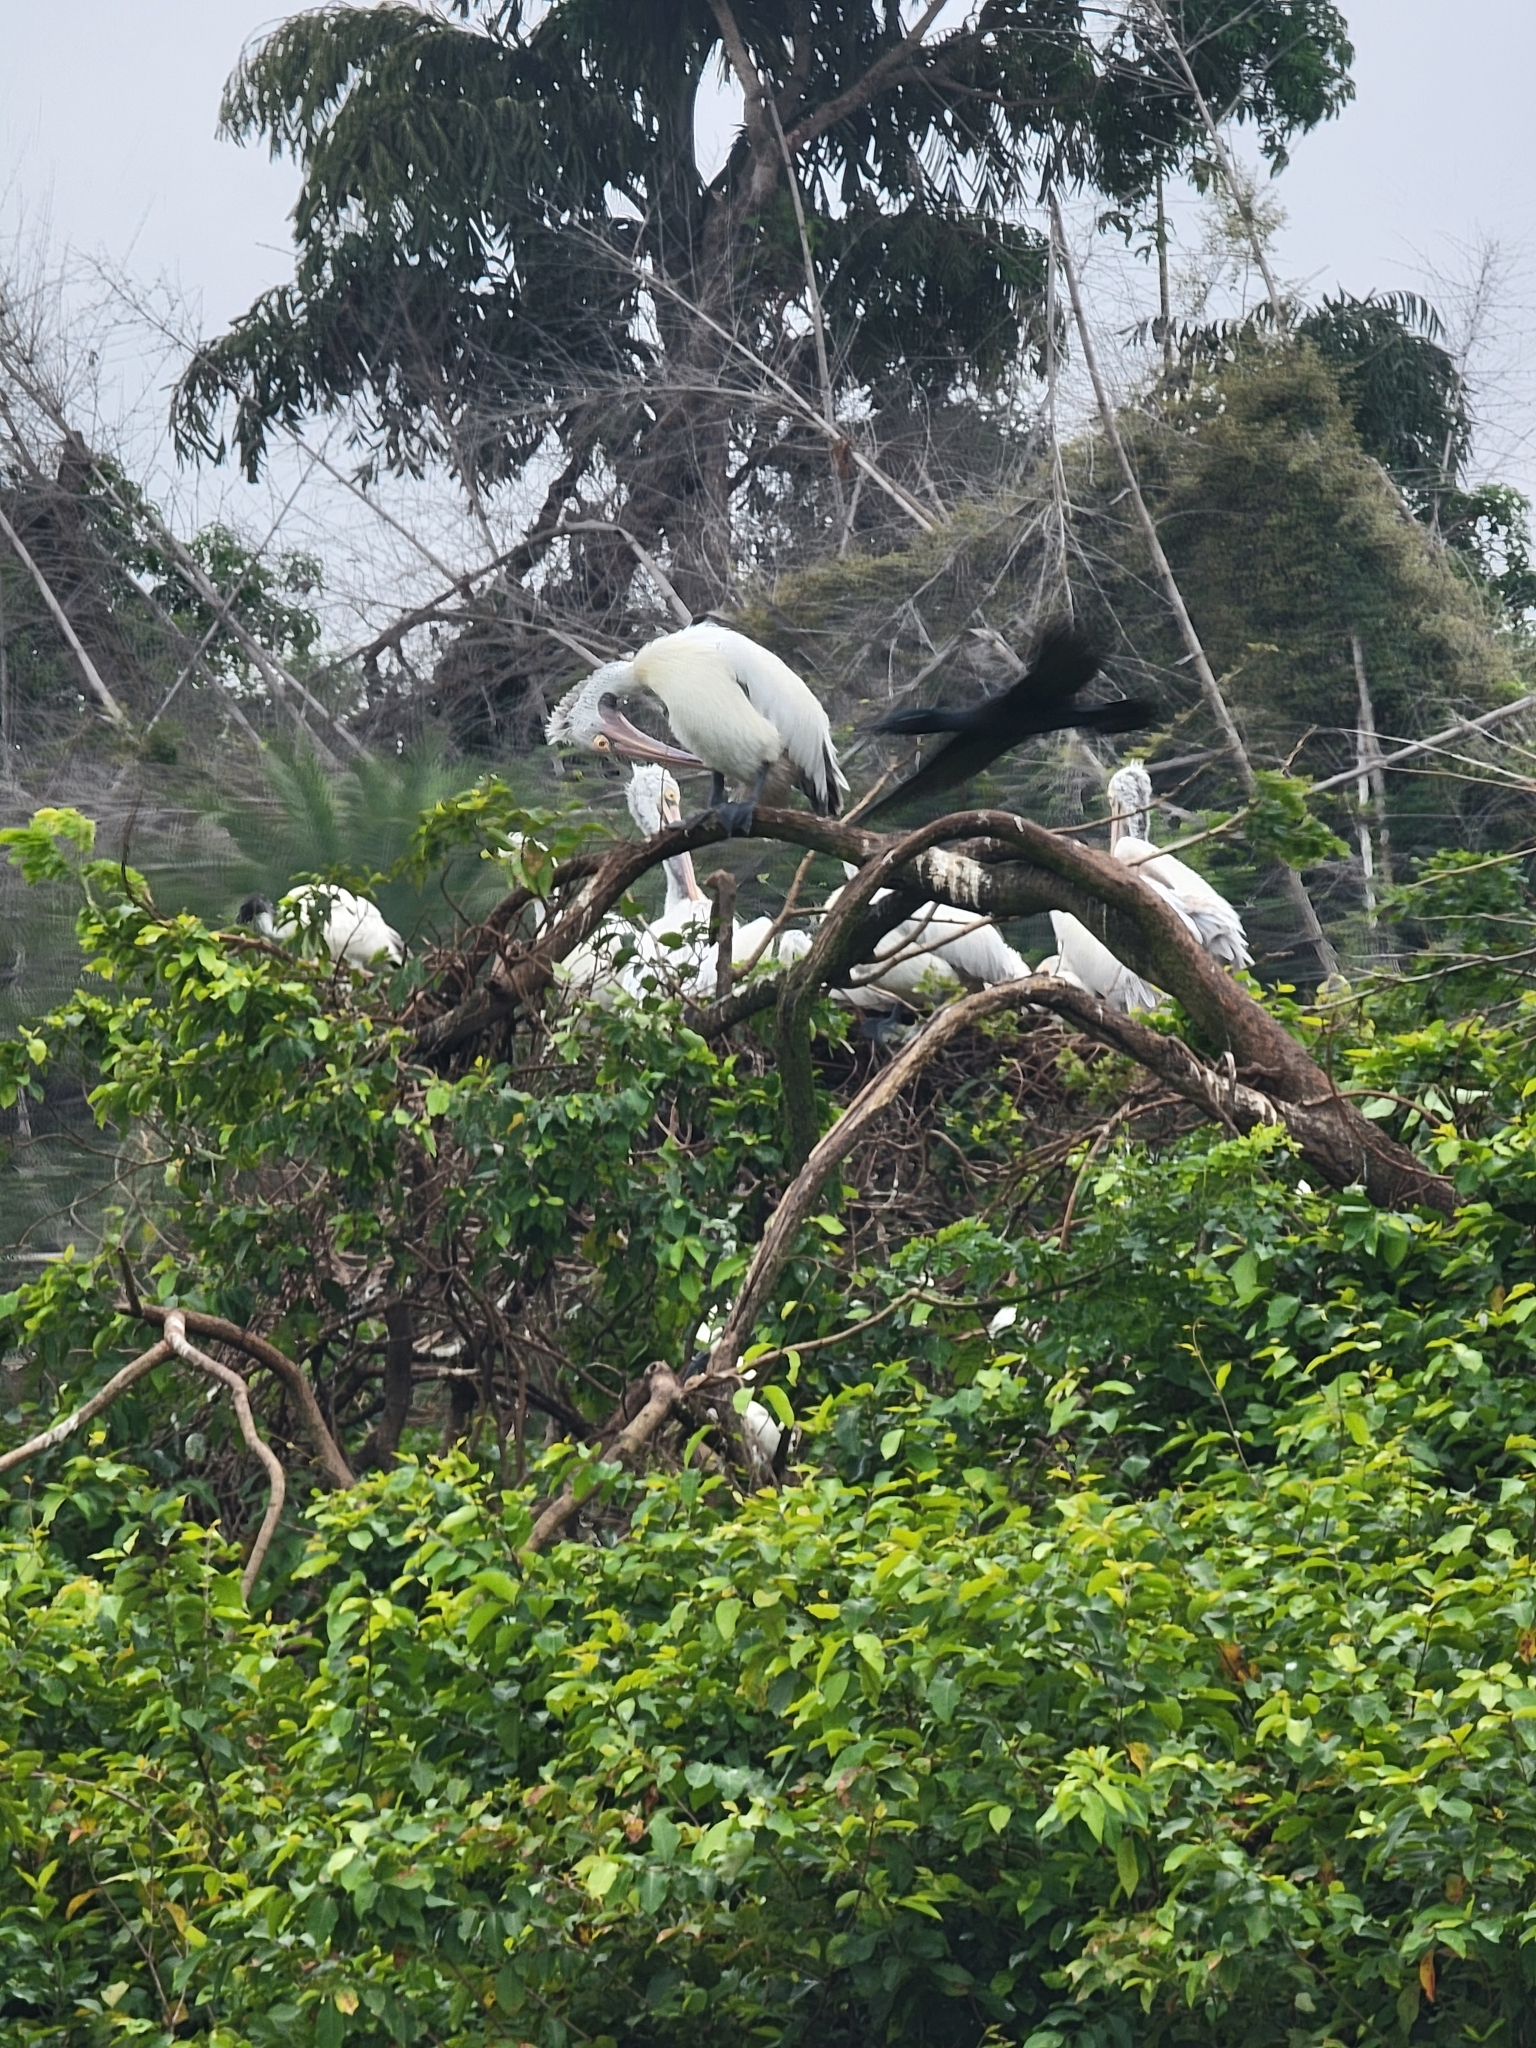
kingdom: Animalia
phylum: Chordata
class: Aves
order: Pelecaniformes
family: Pelecanidae
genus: Pelecanus
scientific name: Pelecanus philippensis
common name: Spot-billed pelican
